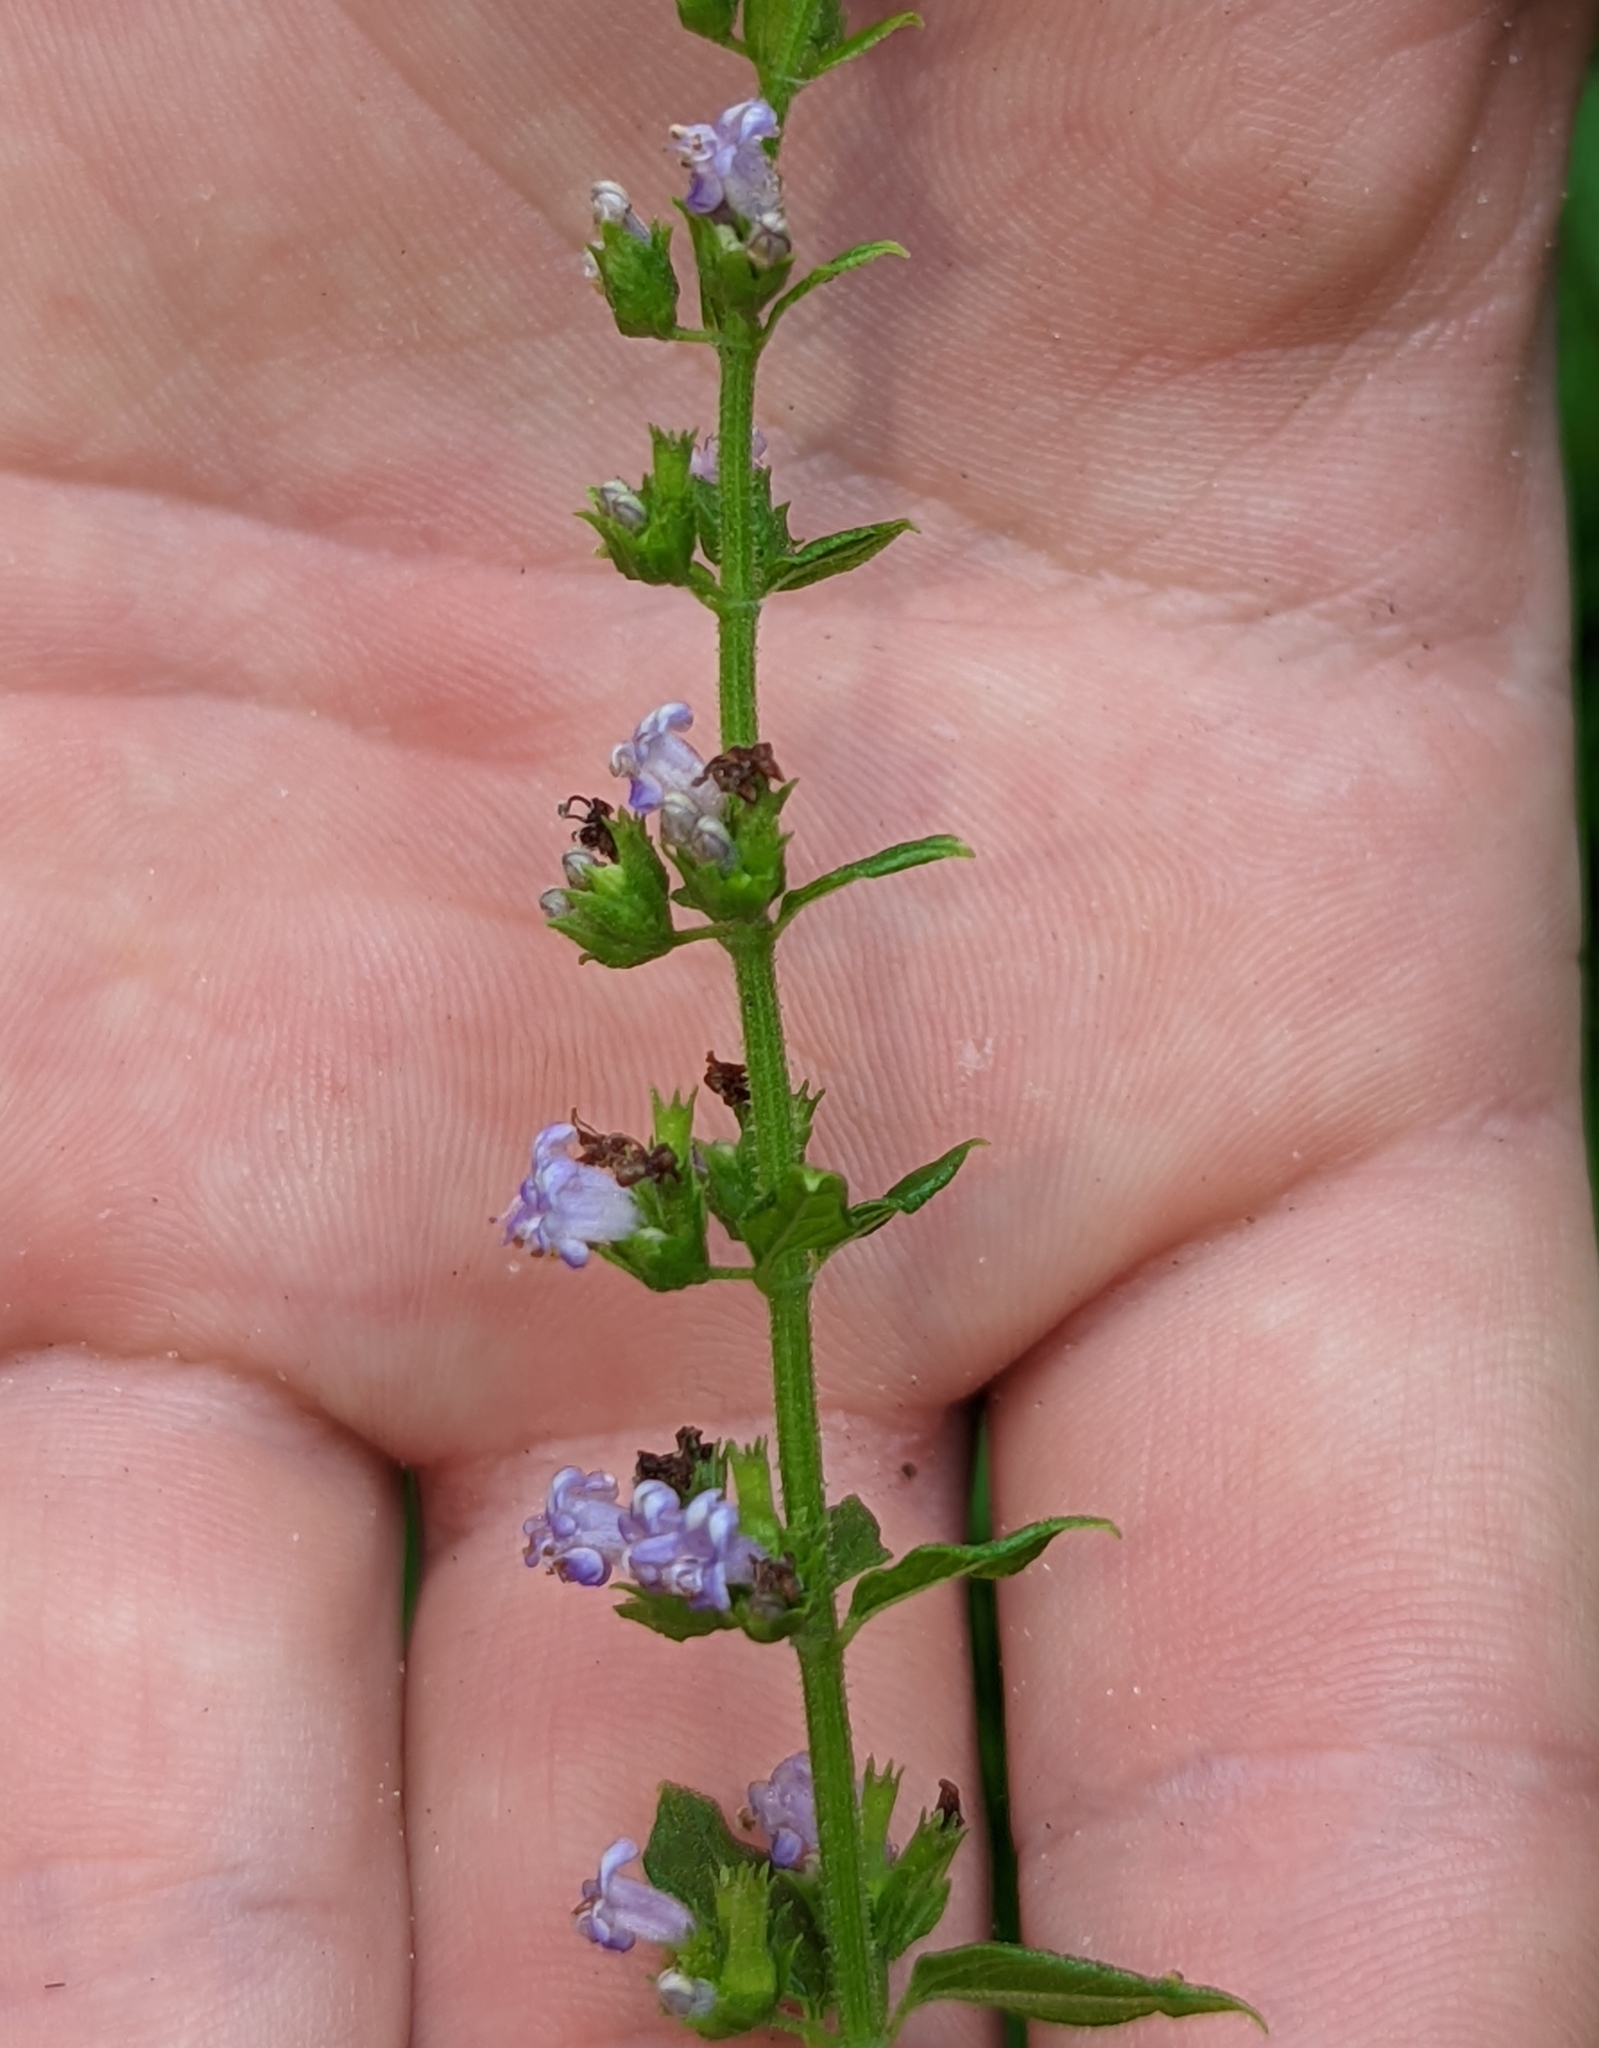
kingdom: Plantae
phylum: Tracheophyta
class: Magnoliopsida
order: Lamiales
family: Lamiaceae
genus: Cantinoa
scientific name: Cantinoa mutabilis
